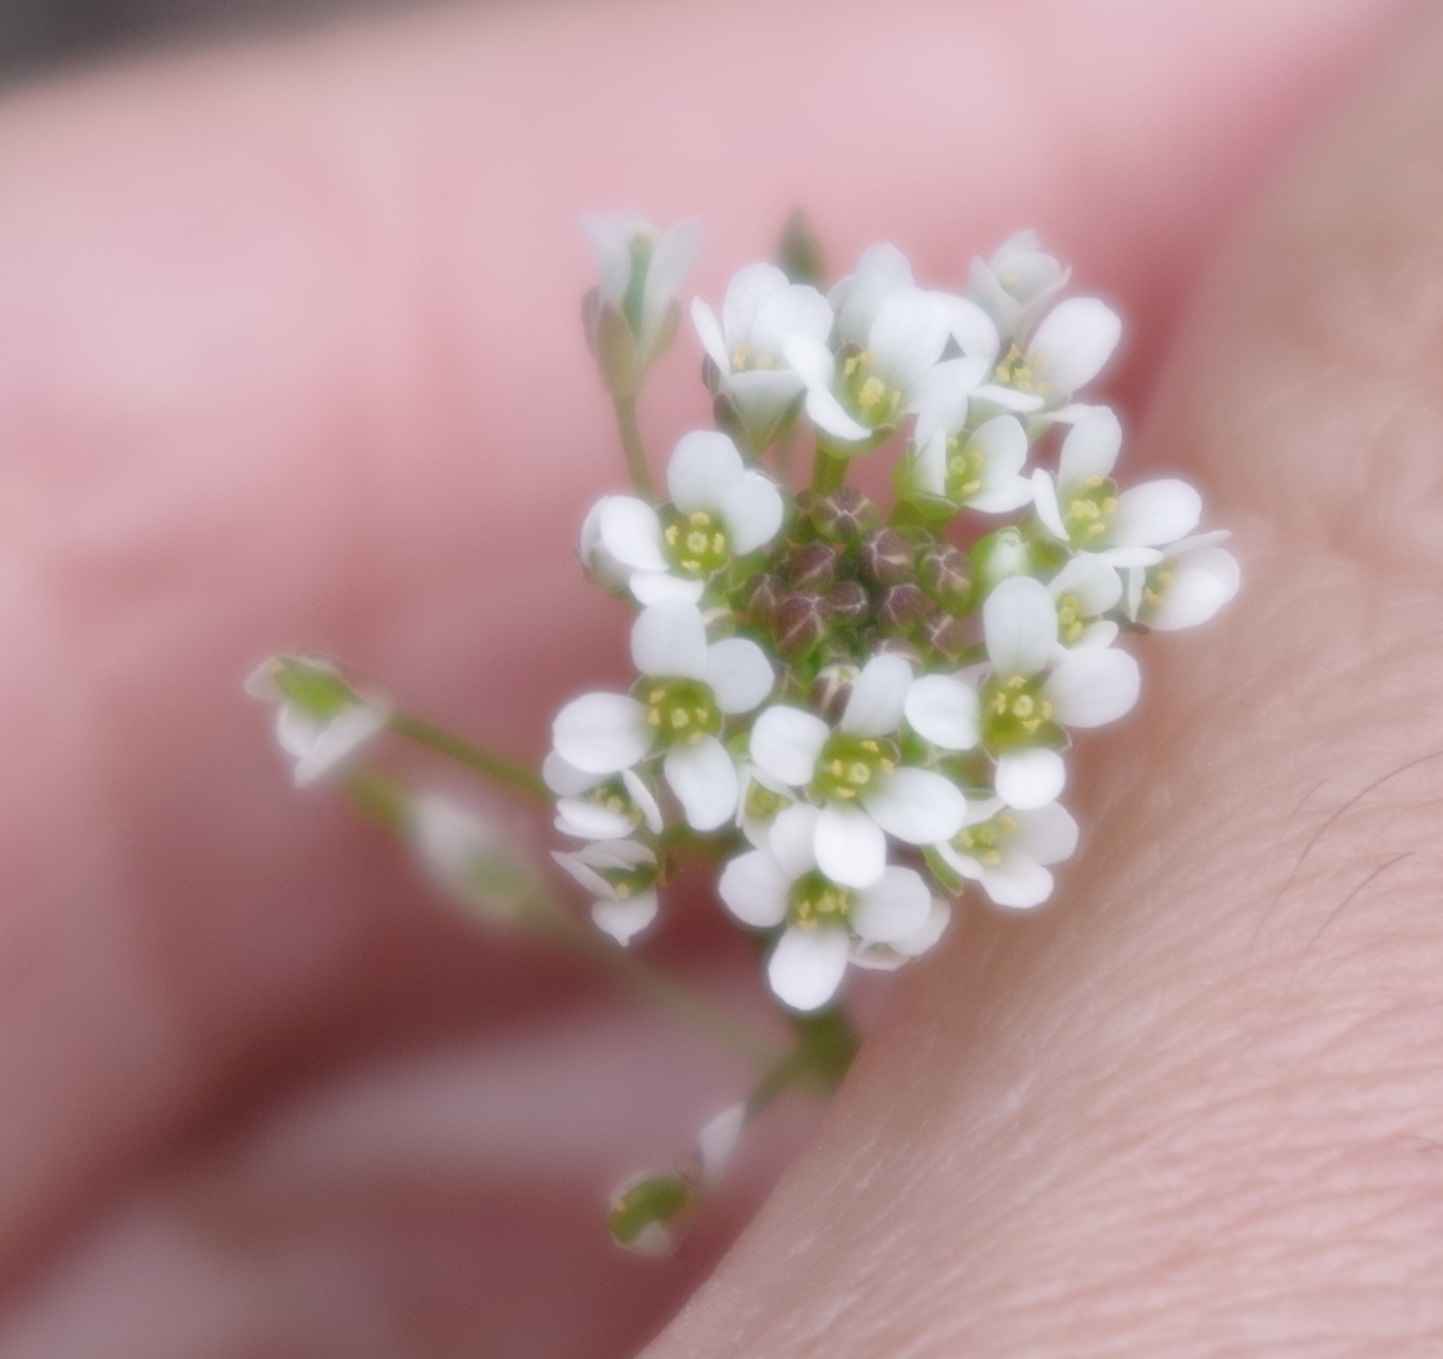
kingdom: Plantae
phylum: Tracheophyta
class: Magnoliopsida
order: Brassicales
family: Brassicaceae
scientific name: Brassicaceae
